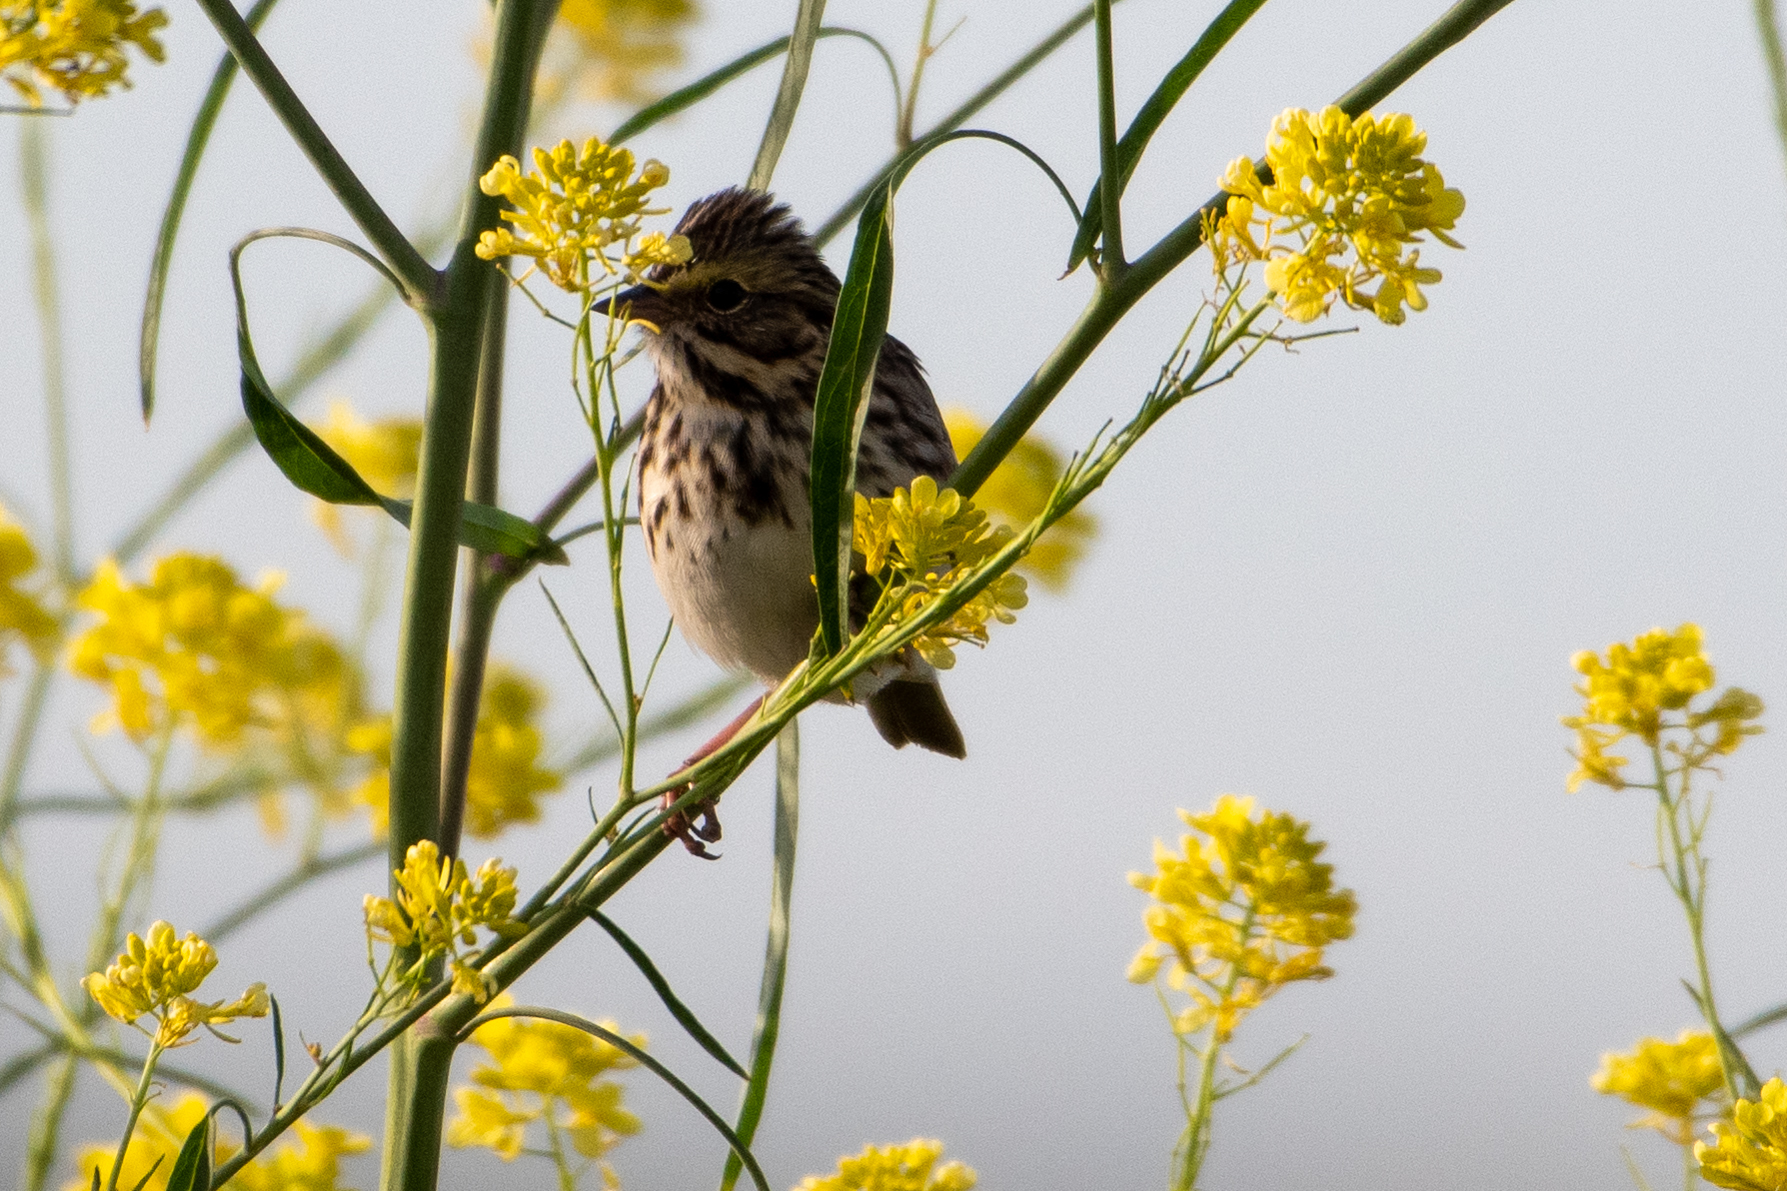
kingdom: Animalia
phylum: Chordata
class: Aves
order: Passeriformes
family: Passerellidae
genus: Passerculus
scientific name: Passerculus sandwichensis
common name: Savannah sparrow
